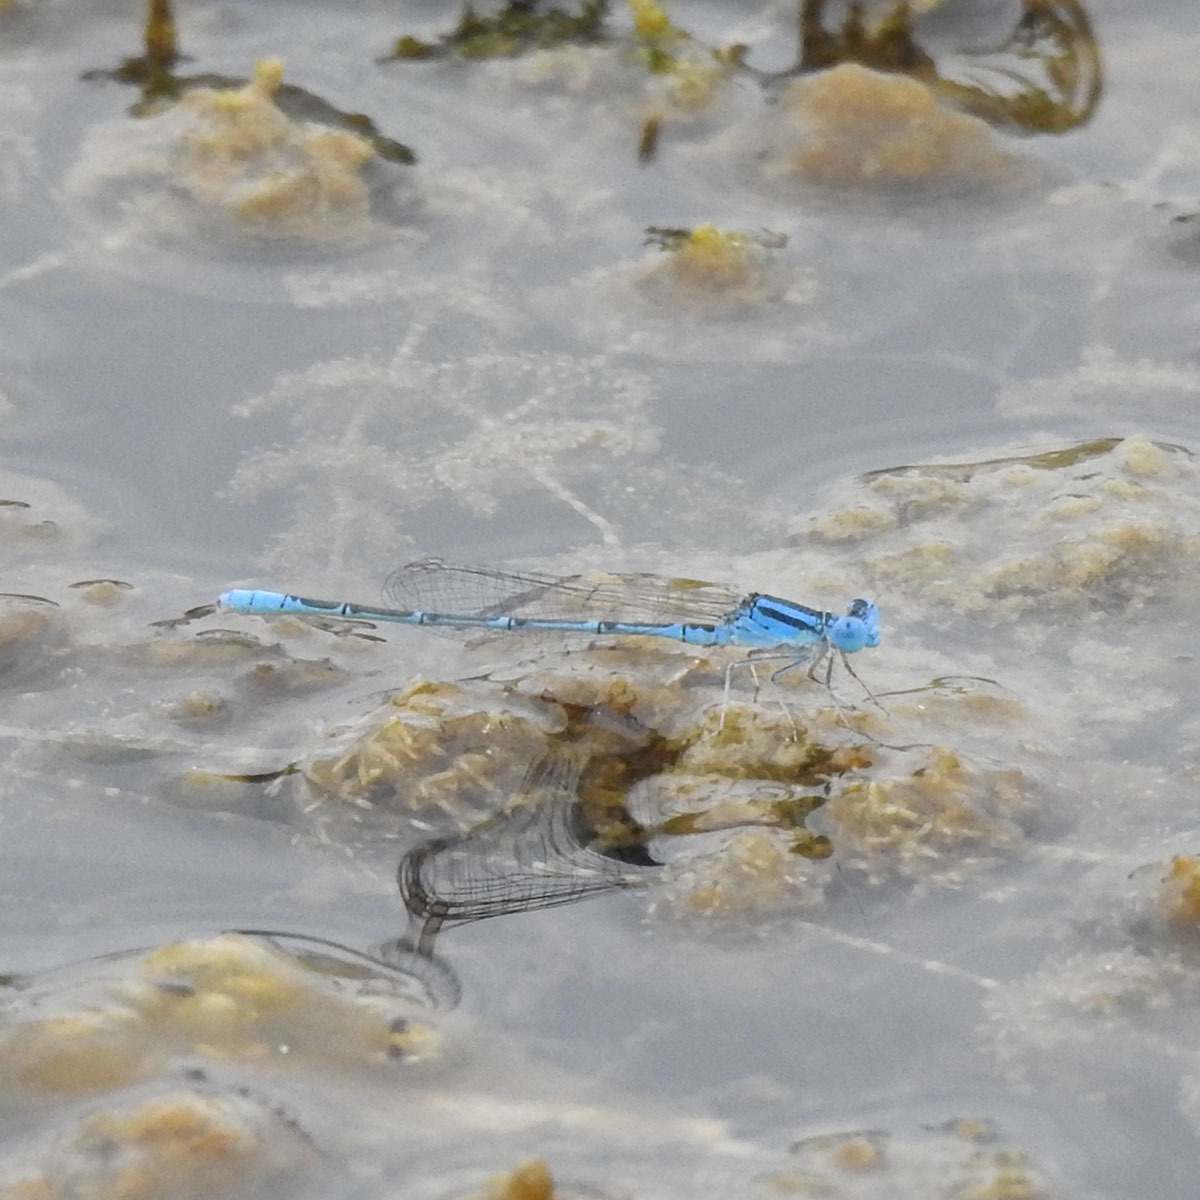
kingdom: Animalia
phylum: Arthropoda
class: Insecta
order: Odonata
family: Coenagrionidae
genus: Paracercion
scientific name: Paracercion melanotum
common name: Eastern lilysquatter
